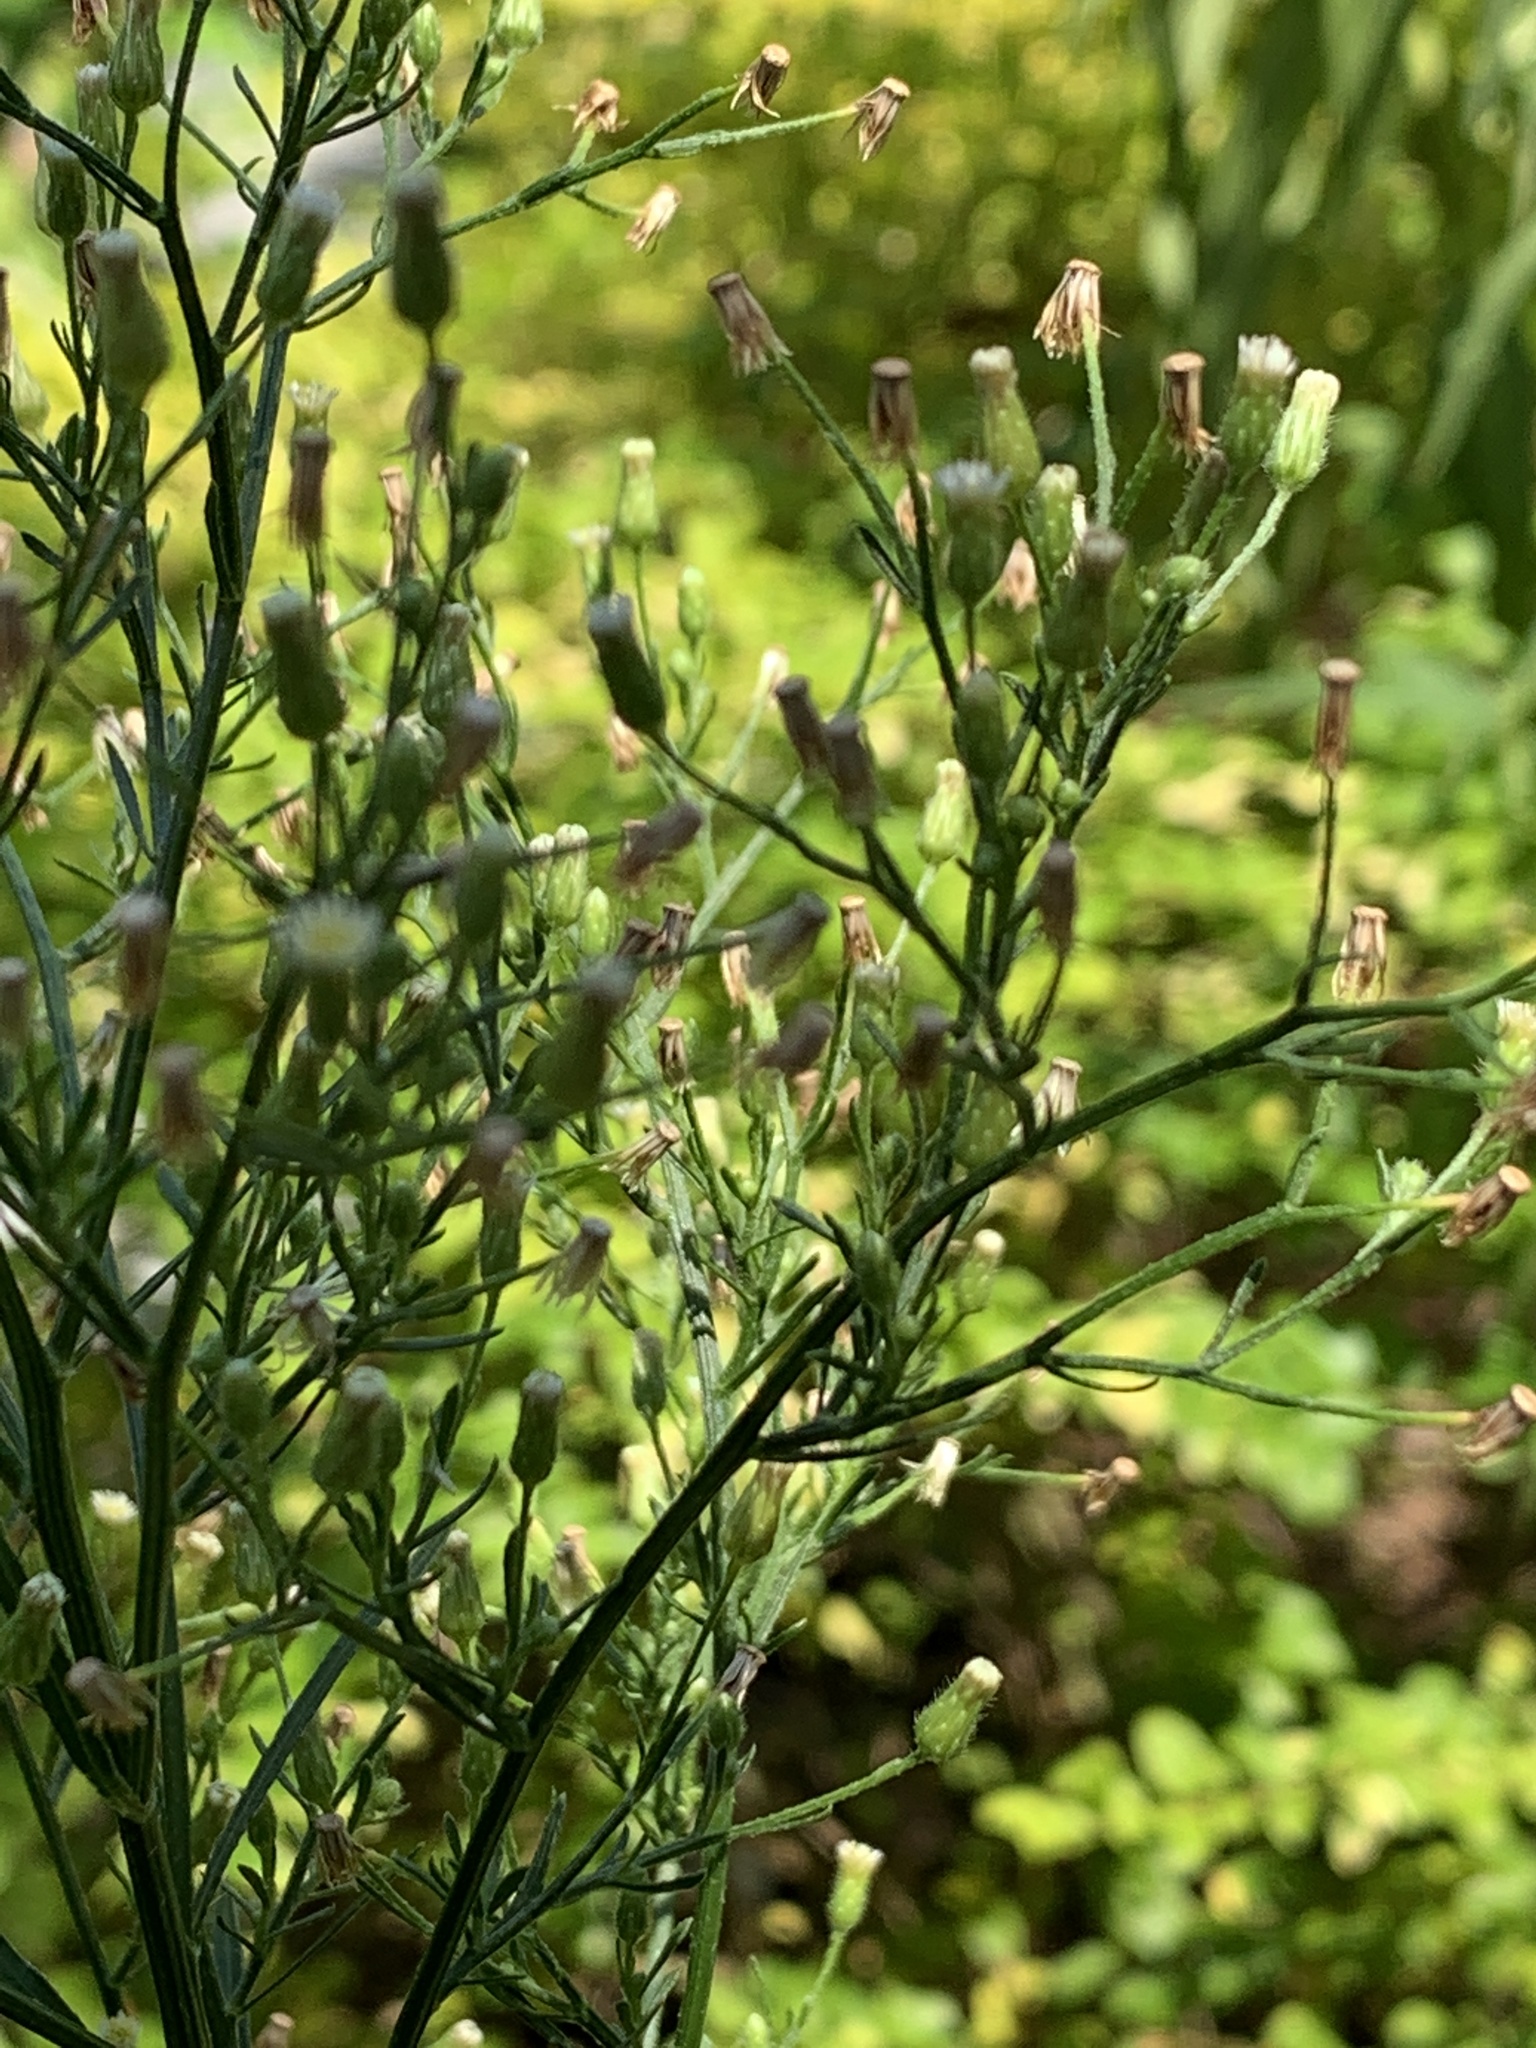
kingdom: Plantae
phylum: Tracheophyta
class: Magnoliopsida
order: Asterales
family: Asteraceae
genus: Erigeron
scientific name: Erigeron canadensis
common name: Canadian fleabane
